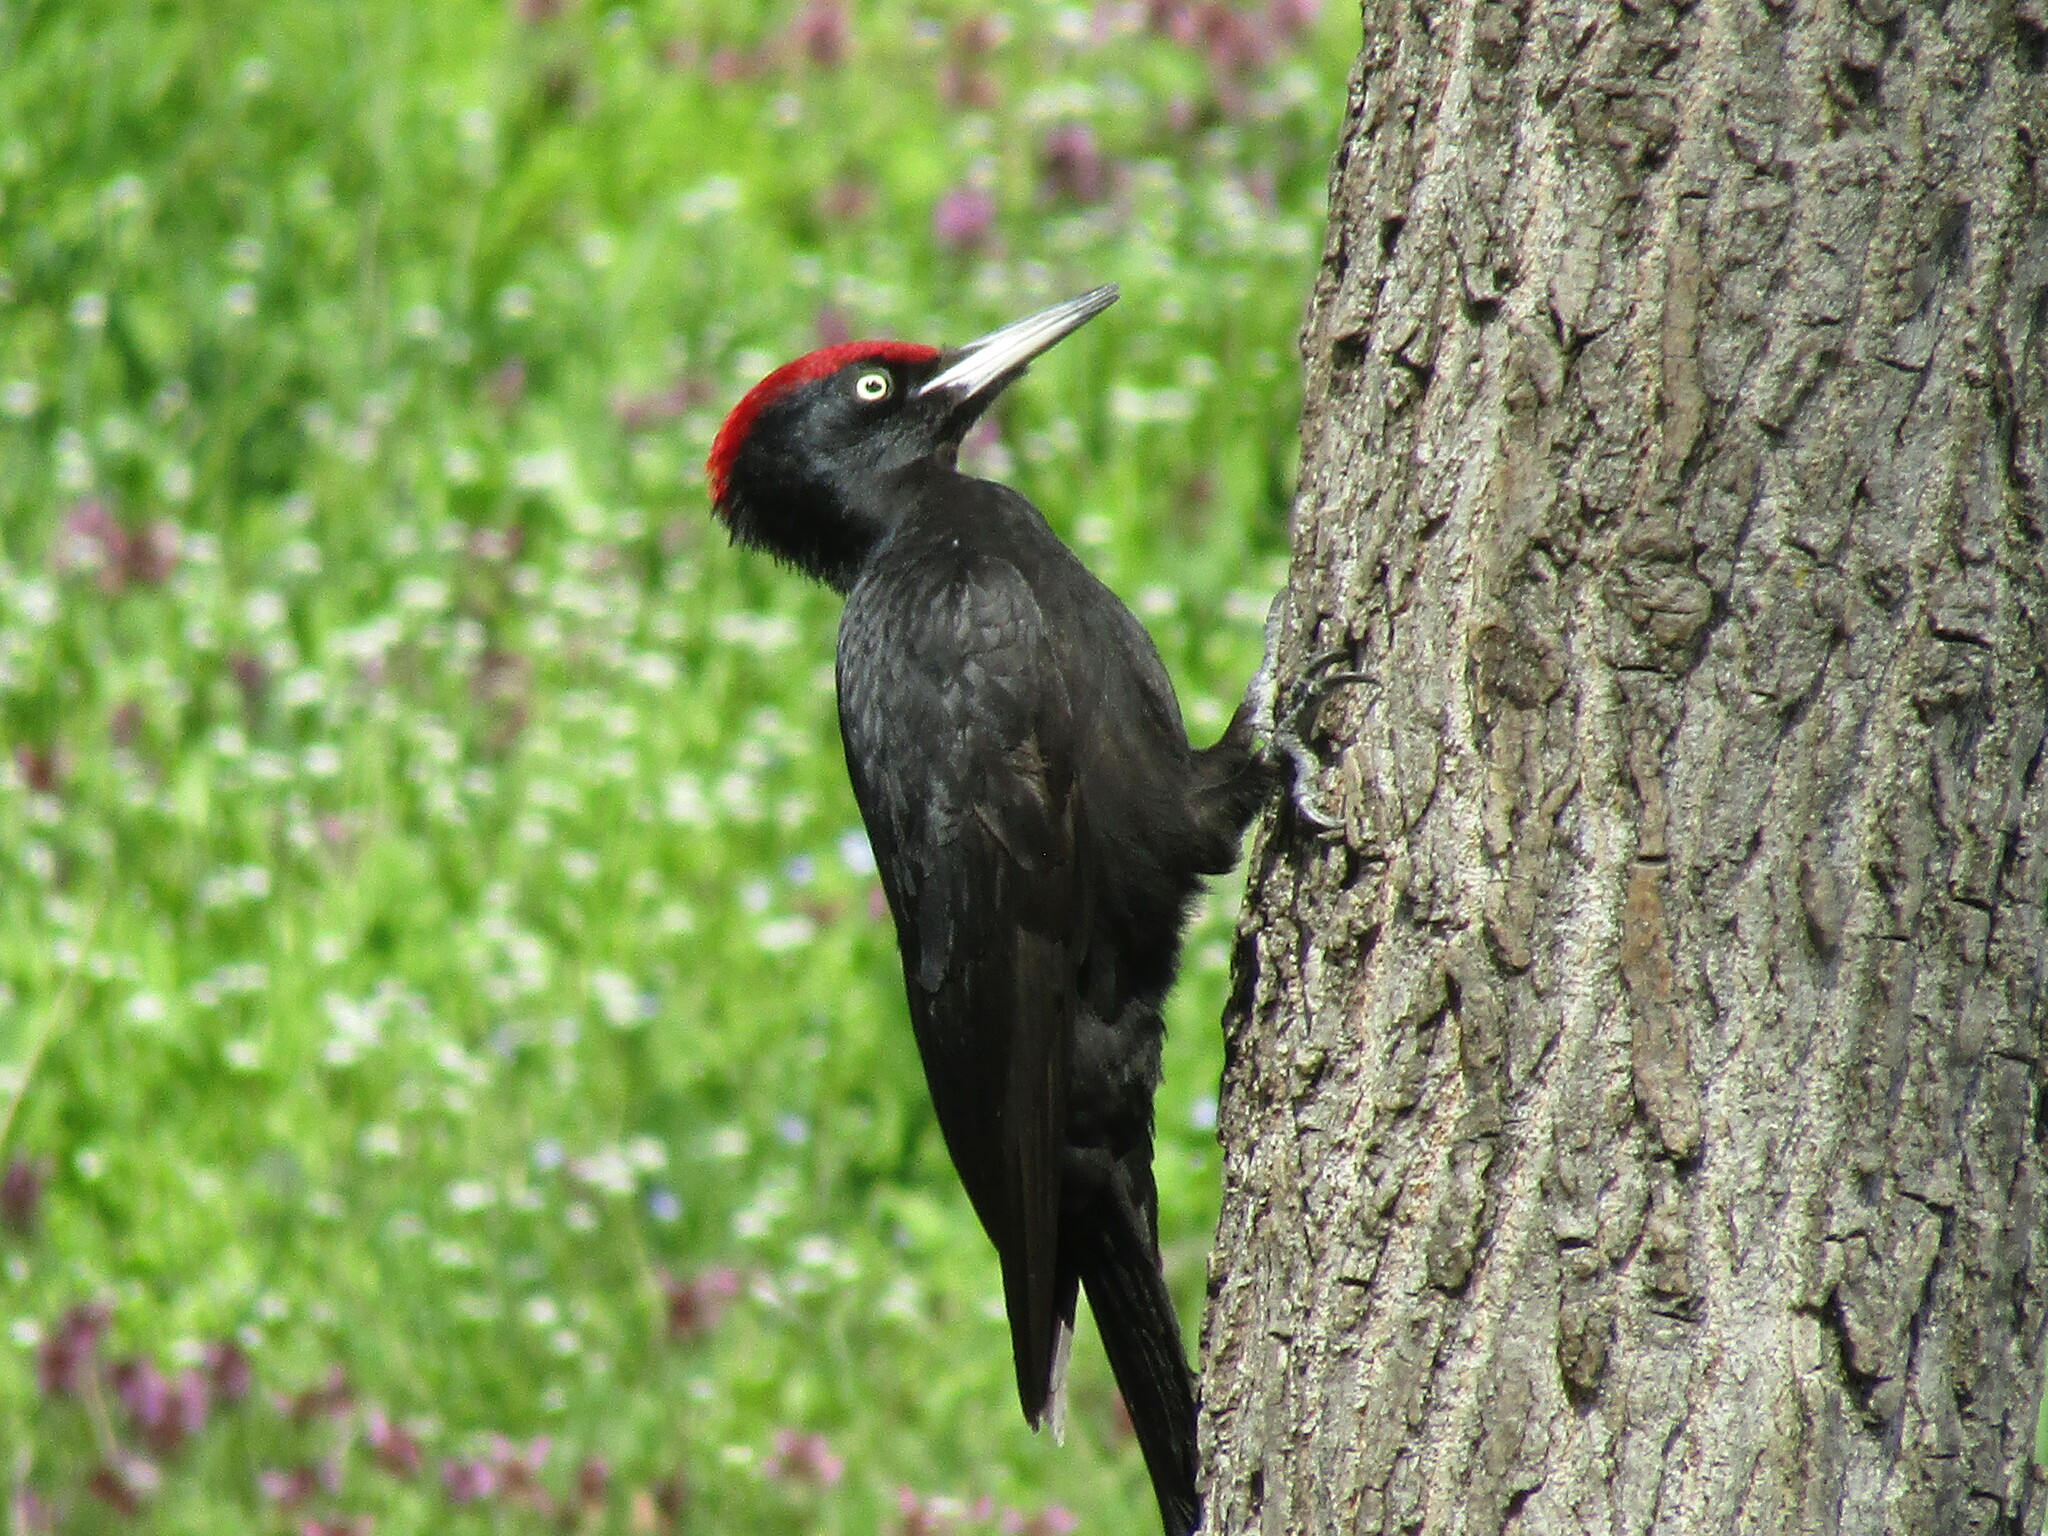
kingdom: Animalia
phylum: Chordata
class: Aves
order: Piciformes
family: Picidae
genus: Dryocopus
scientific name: Dryocopus martius
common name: Black woodpecker
